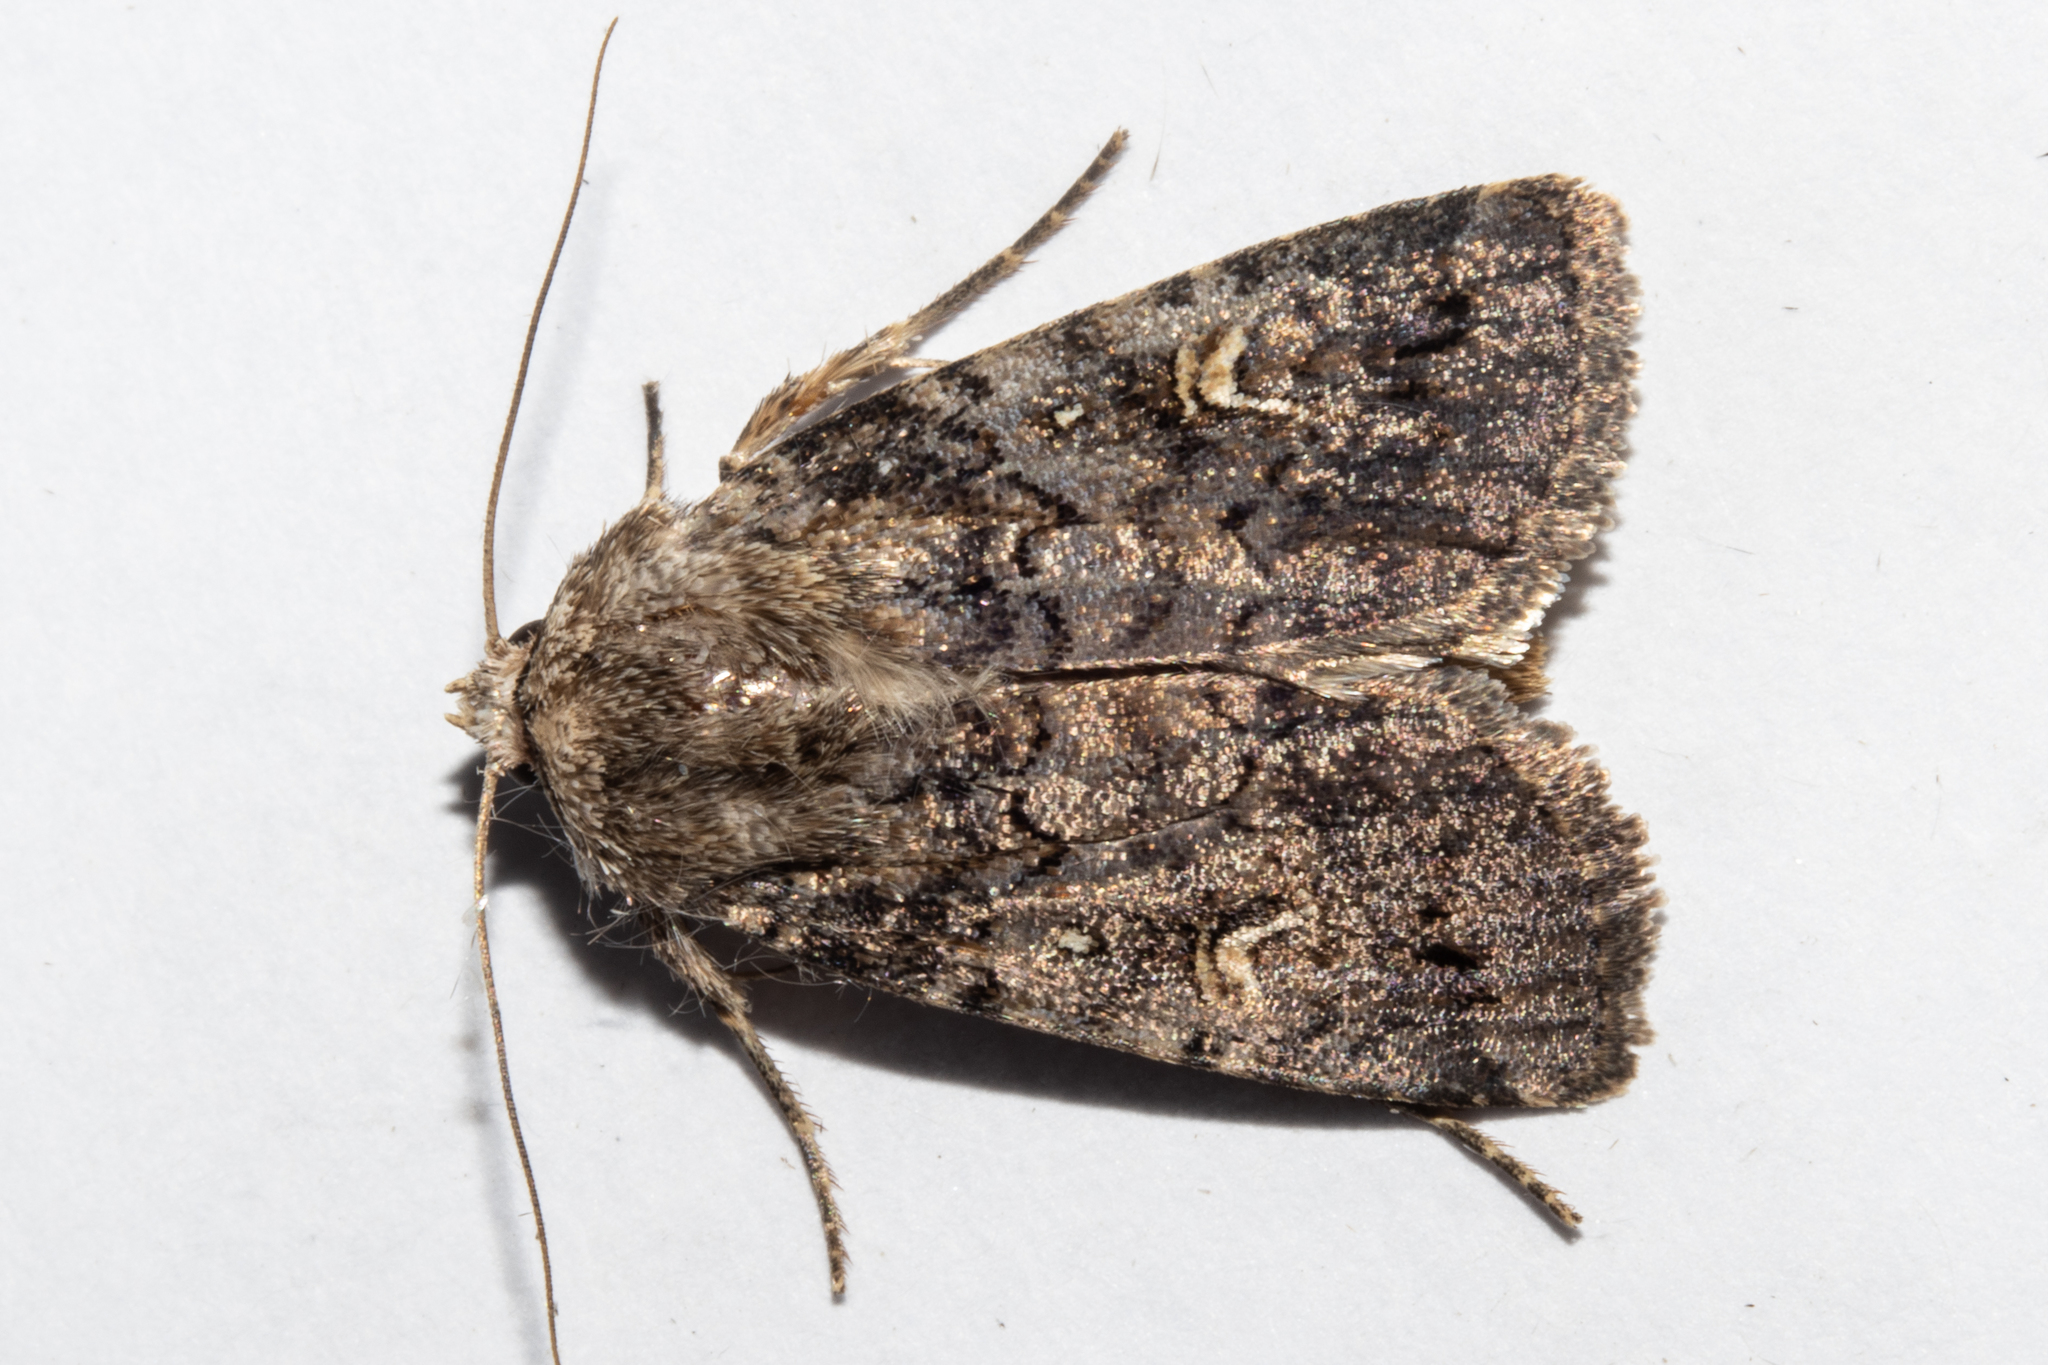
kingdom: Animalia
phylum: Arthropoda
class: Insecta
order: Lepidoptera
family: Noctuidae
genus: Proteuxoa
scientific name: Proteuxoa tetronycha
